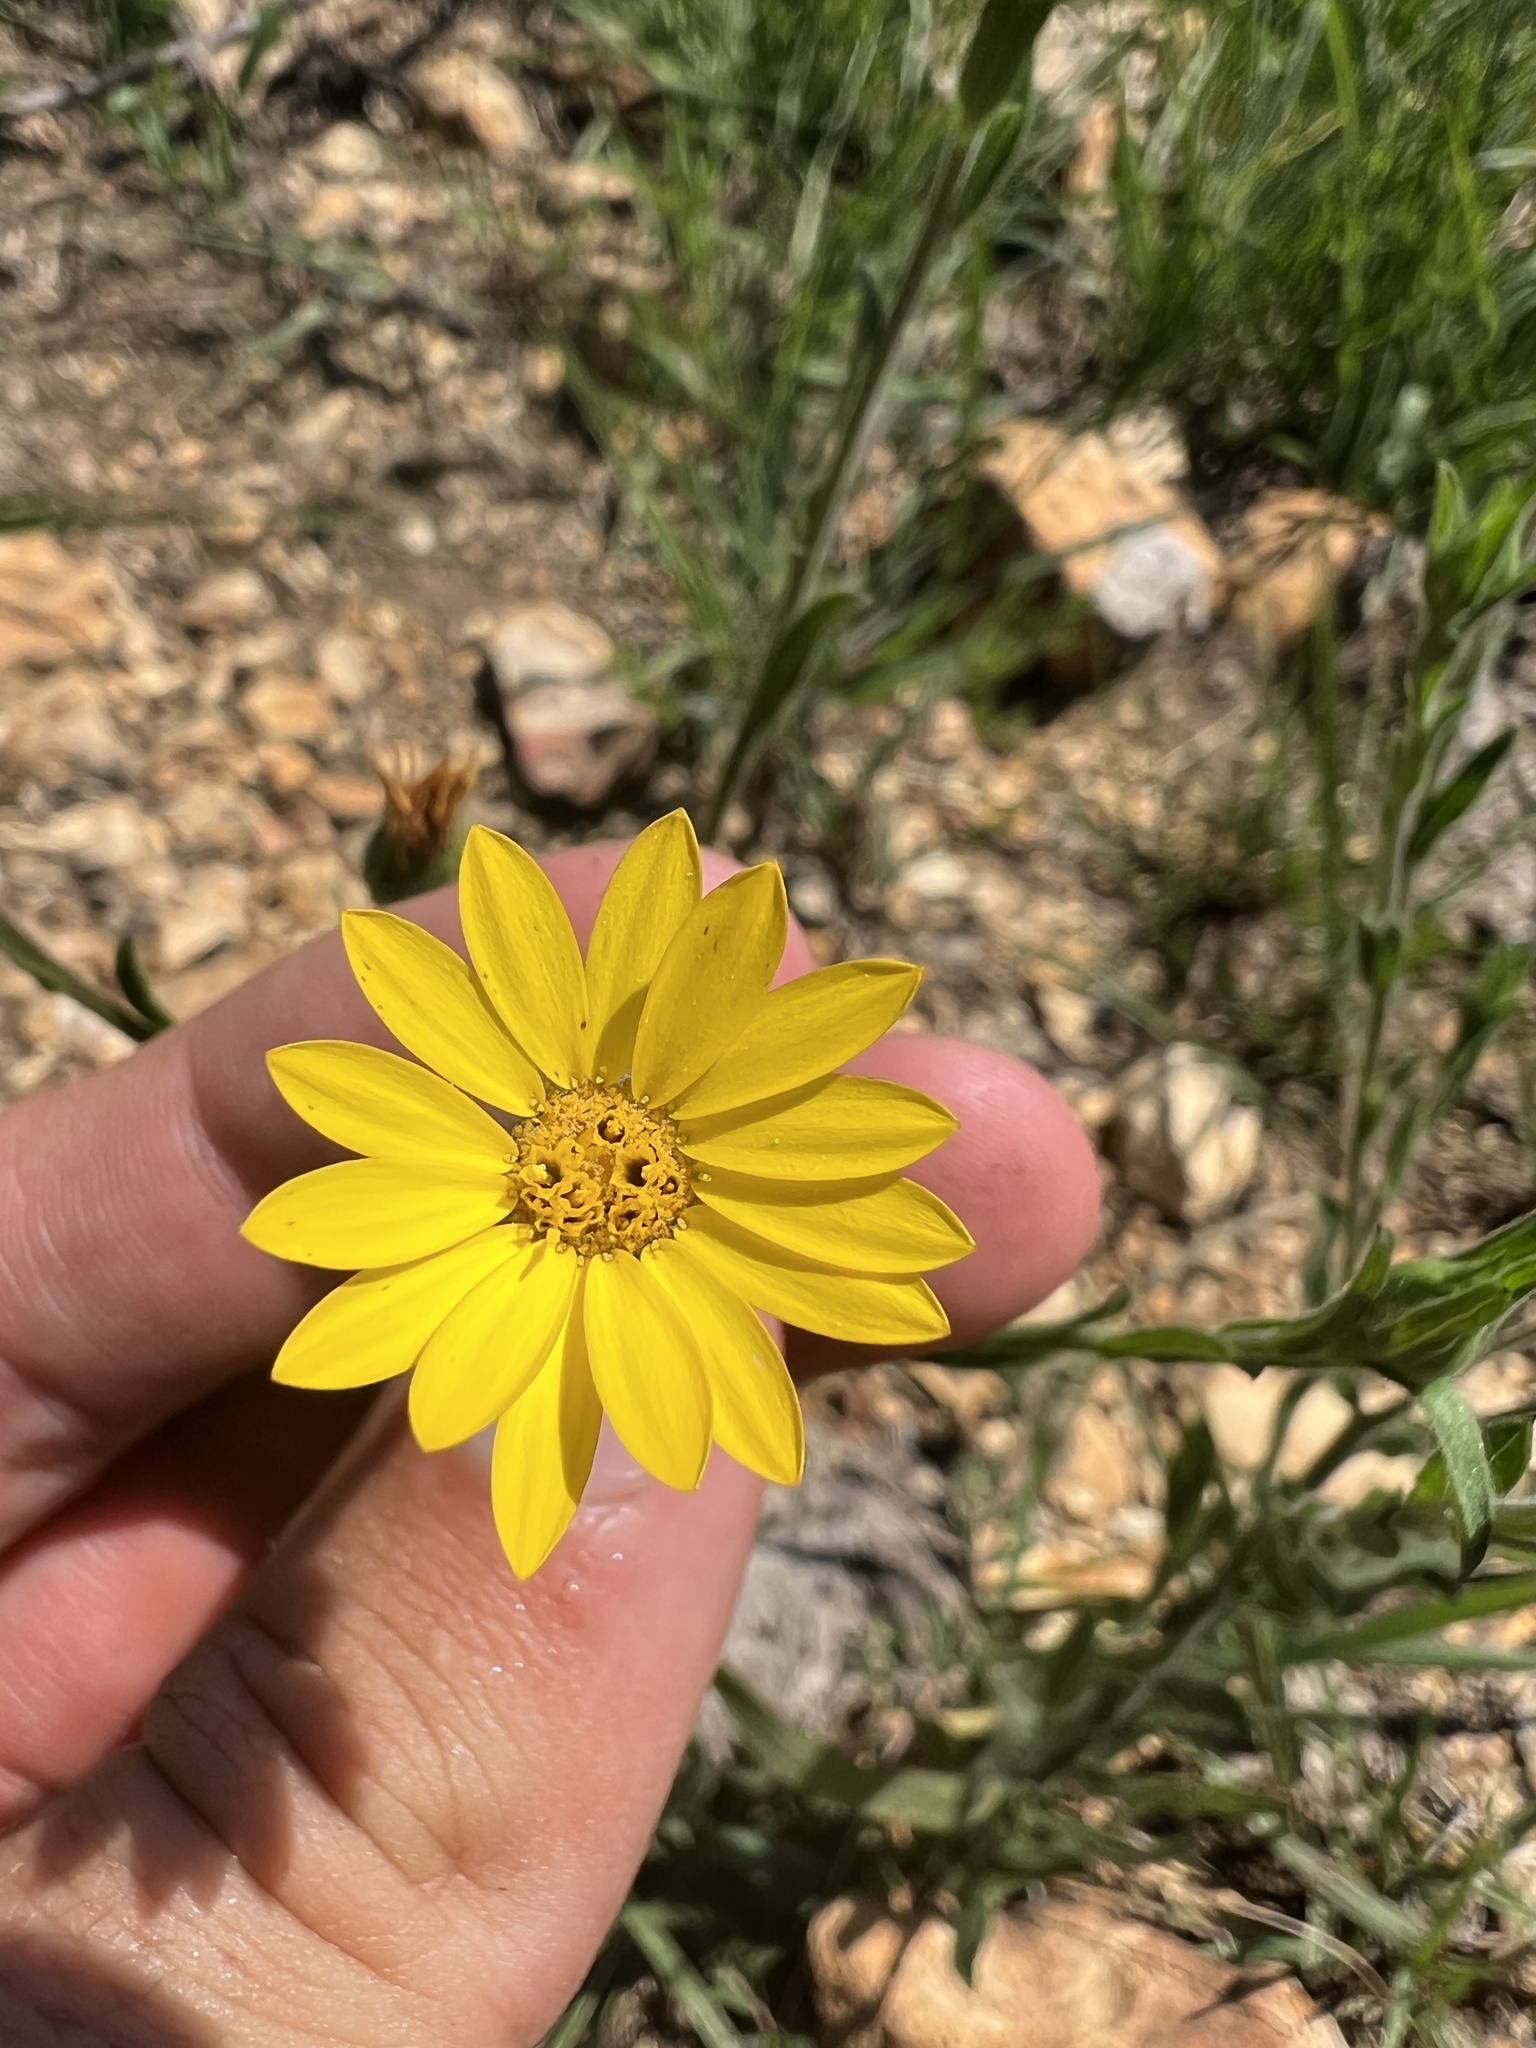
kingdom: Plantae
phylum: Tracheophyta
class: Magnoliopsida
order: Asterales
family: Asteraceae
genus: Bradburia
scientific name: Bradburia pilosa
